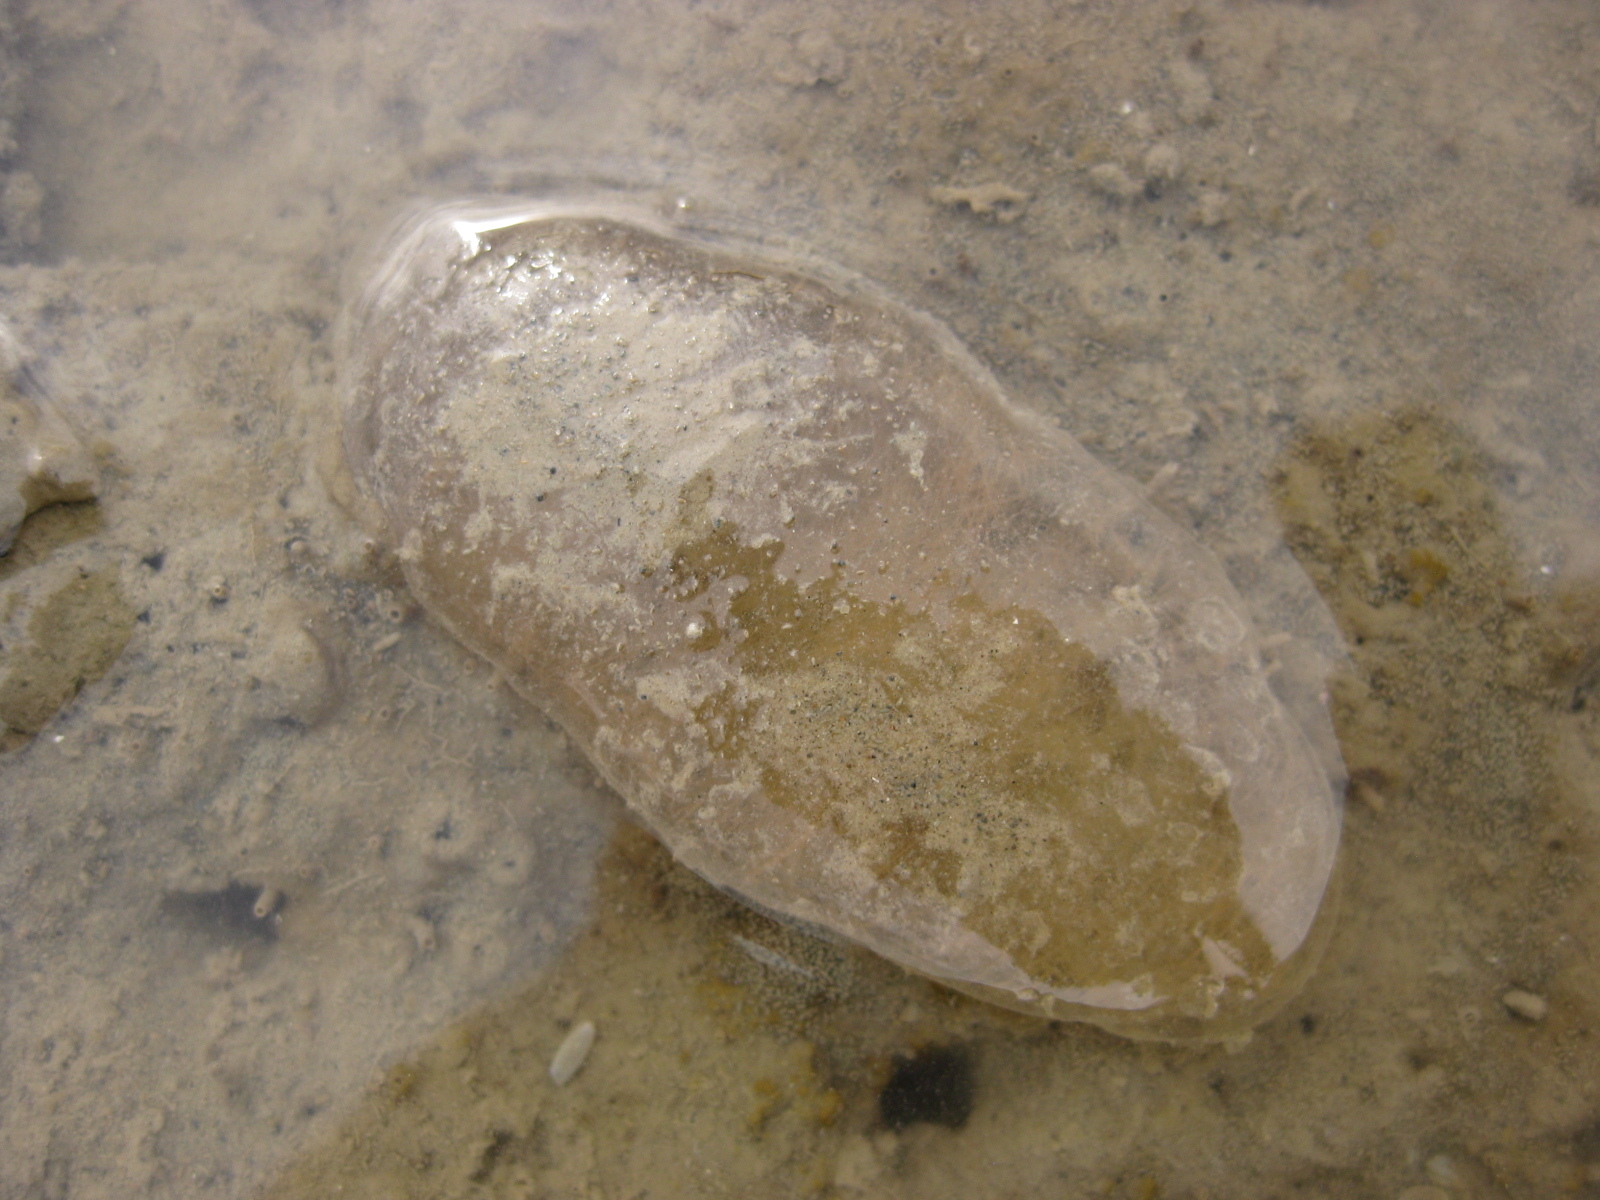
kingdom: Animalia
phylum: Mollusca
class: Gastropoda
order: Cephalaspidea
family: Haminoeidae
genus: Papawera
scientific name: Papawera zelandiae
